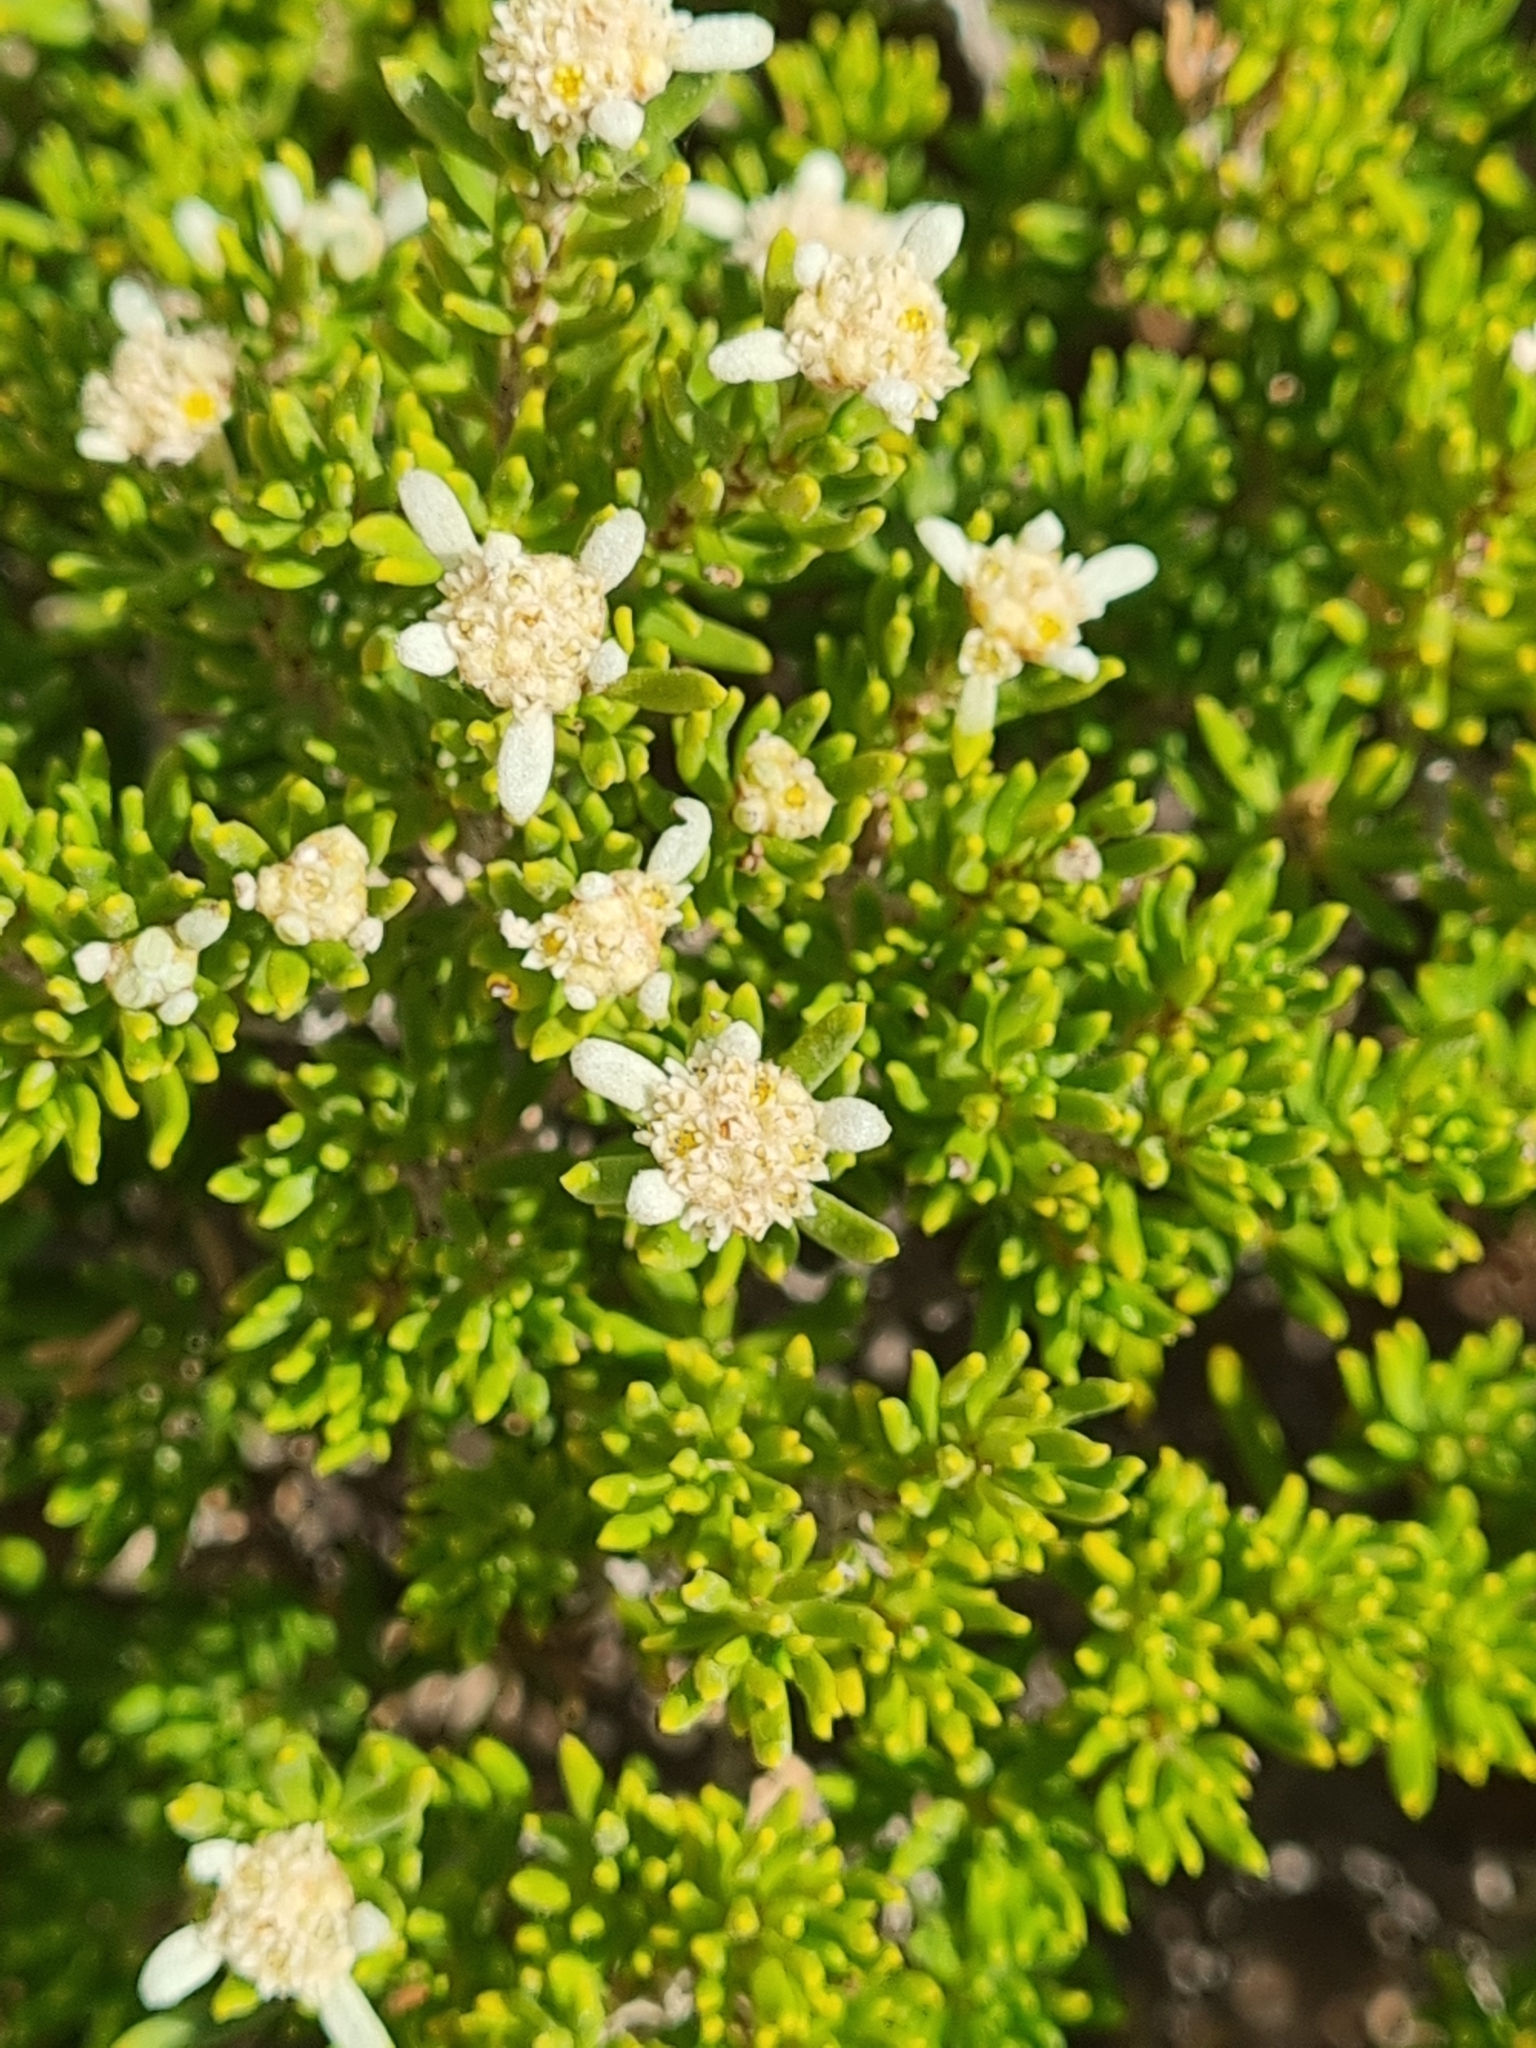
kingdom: Plantae
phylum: Tracheophyta
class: Magnoliopsida
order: Rosales
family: Rhamnaceae
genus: Spyridium
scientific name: Spyridium phylicoides
